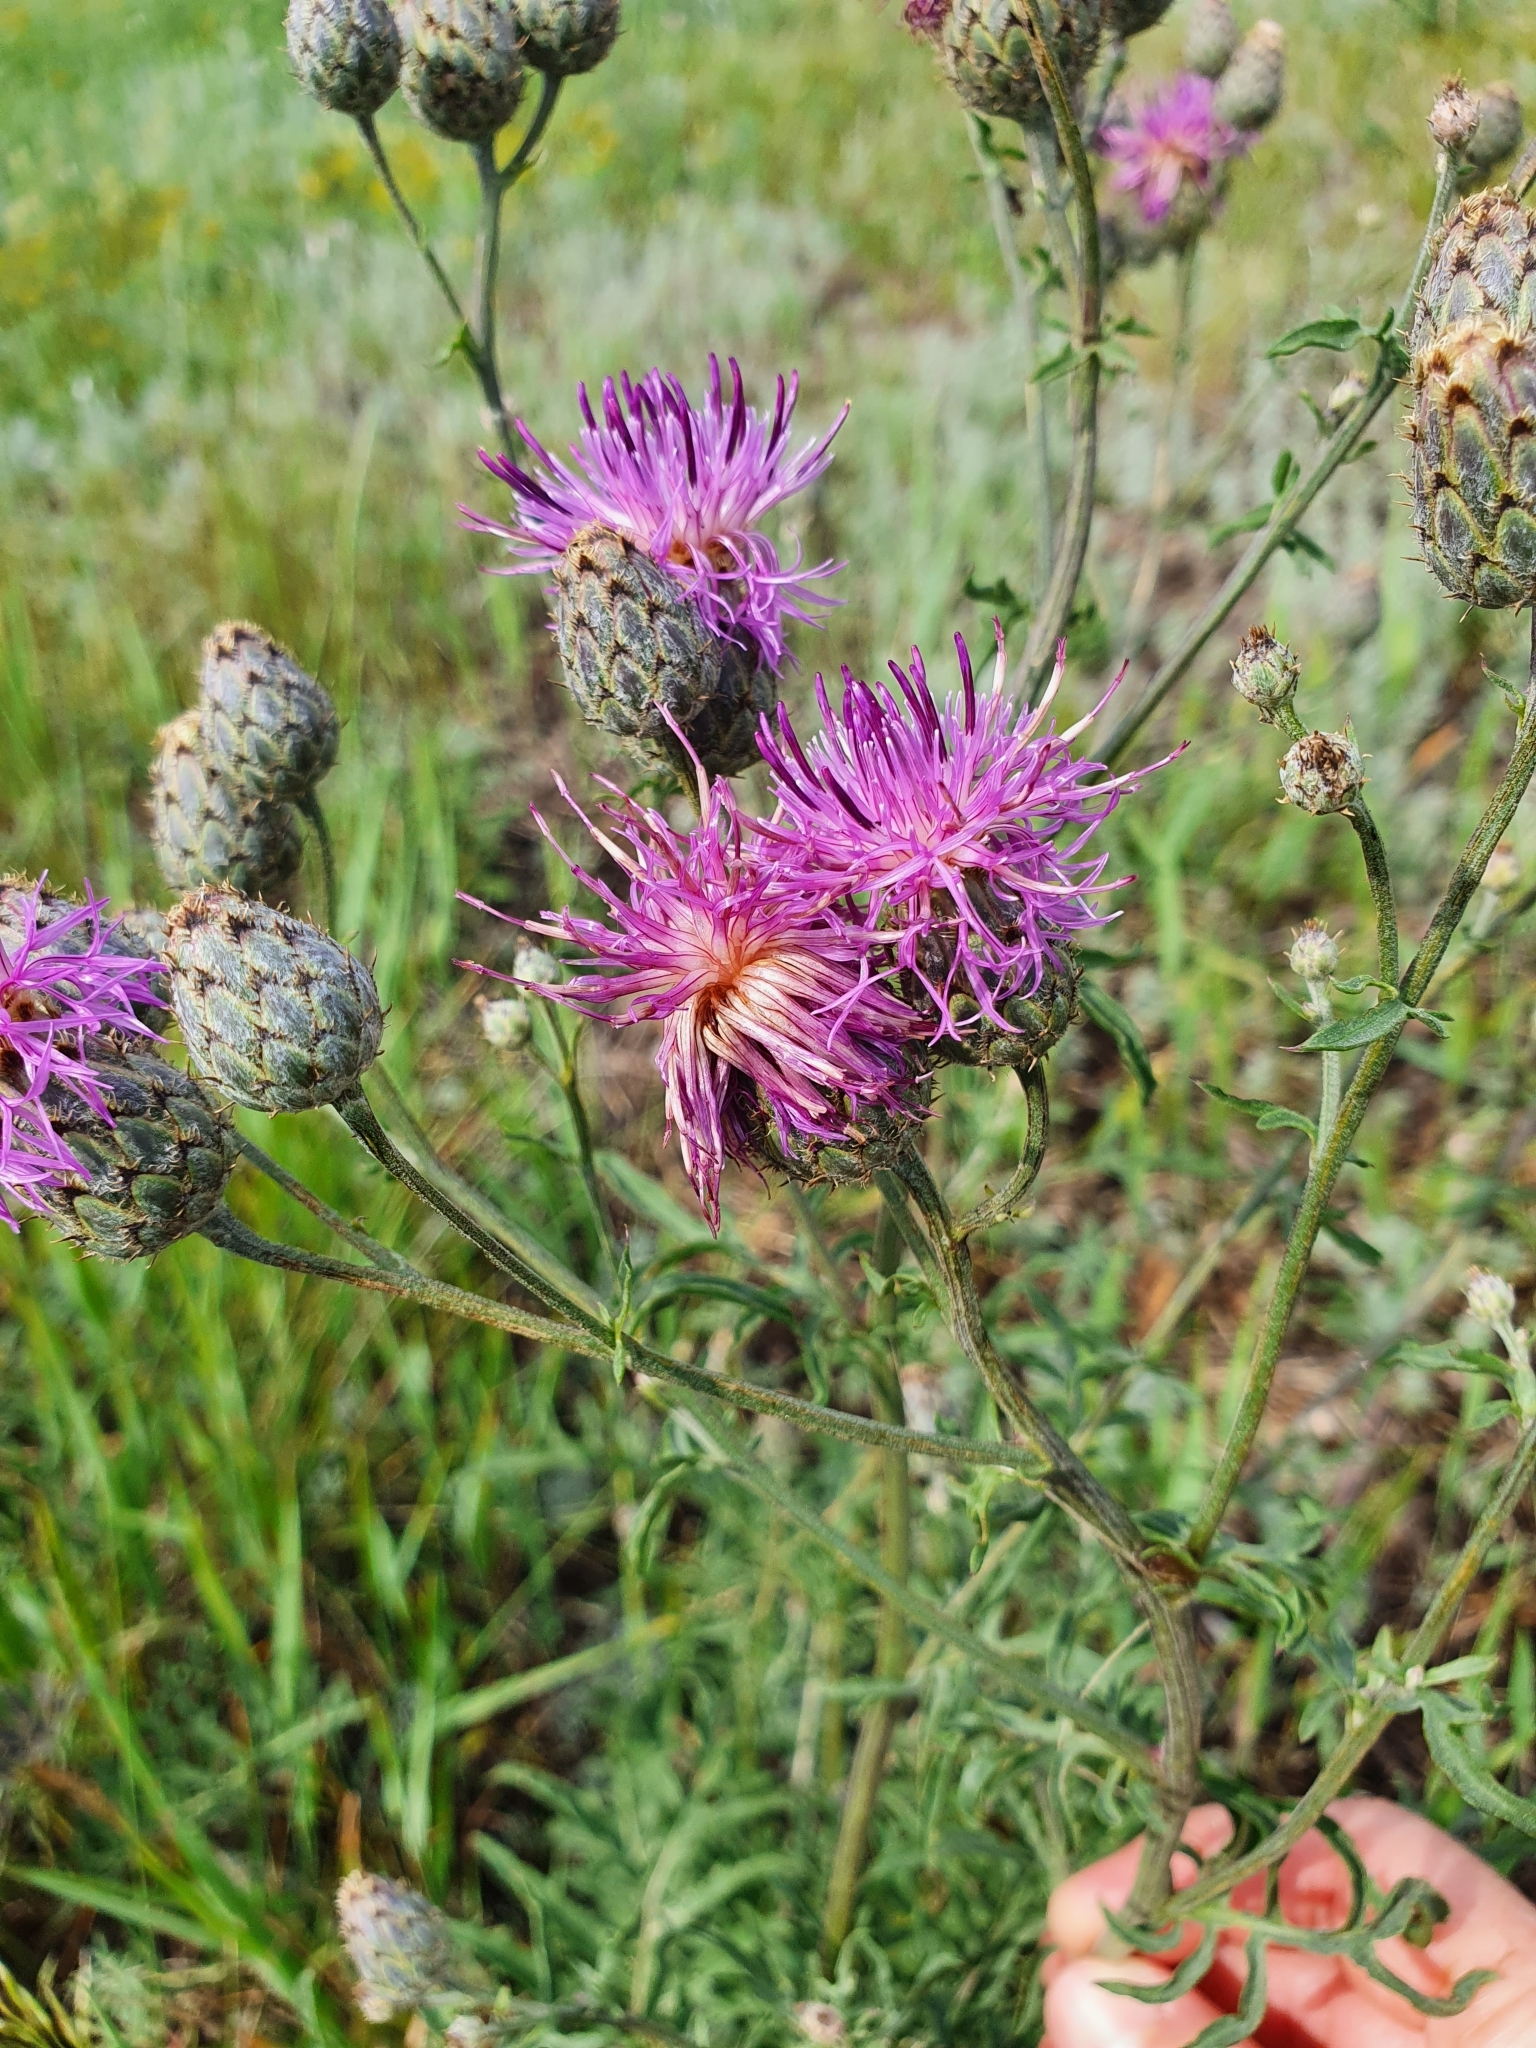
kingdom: Plantae
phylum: Tracheophyta
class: Magnoliopsida
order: Asterales
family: Asteraceae
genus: Centaurea
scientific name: Centaurea scabiosa
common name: Greater knapweed
